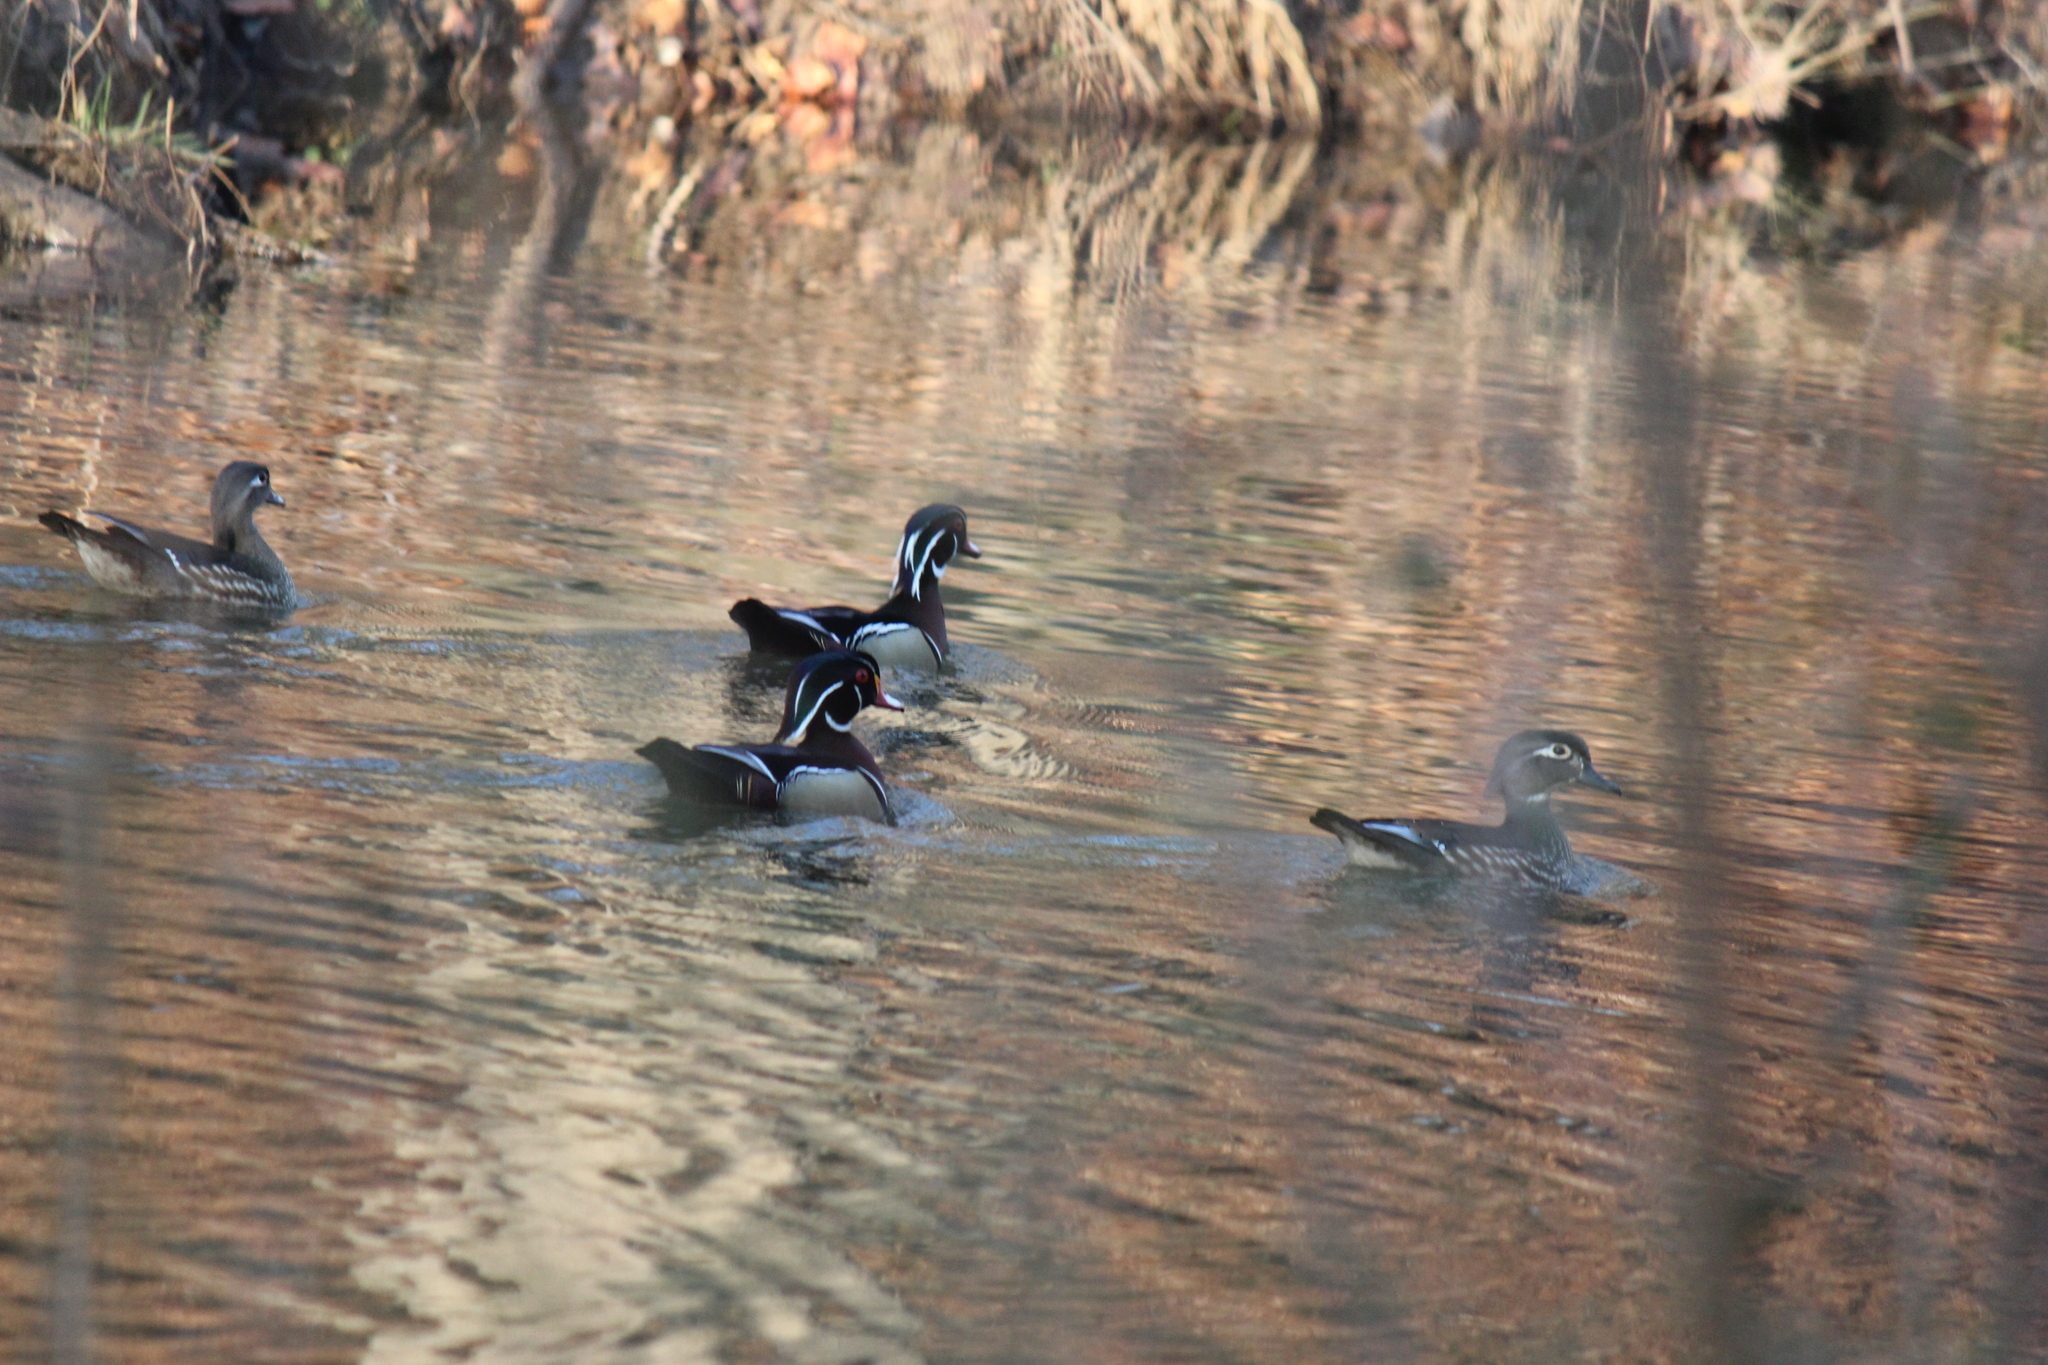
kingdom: Animalia
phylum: Chordata
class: Aves
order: Anseriformes
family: Anatidae
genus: Aix
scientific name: Aix sponsa
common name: Wood duck
